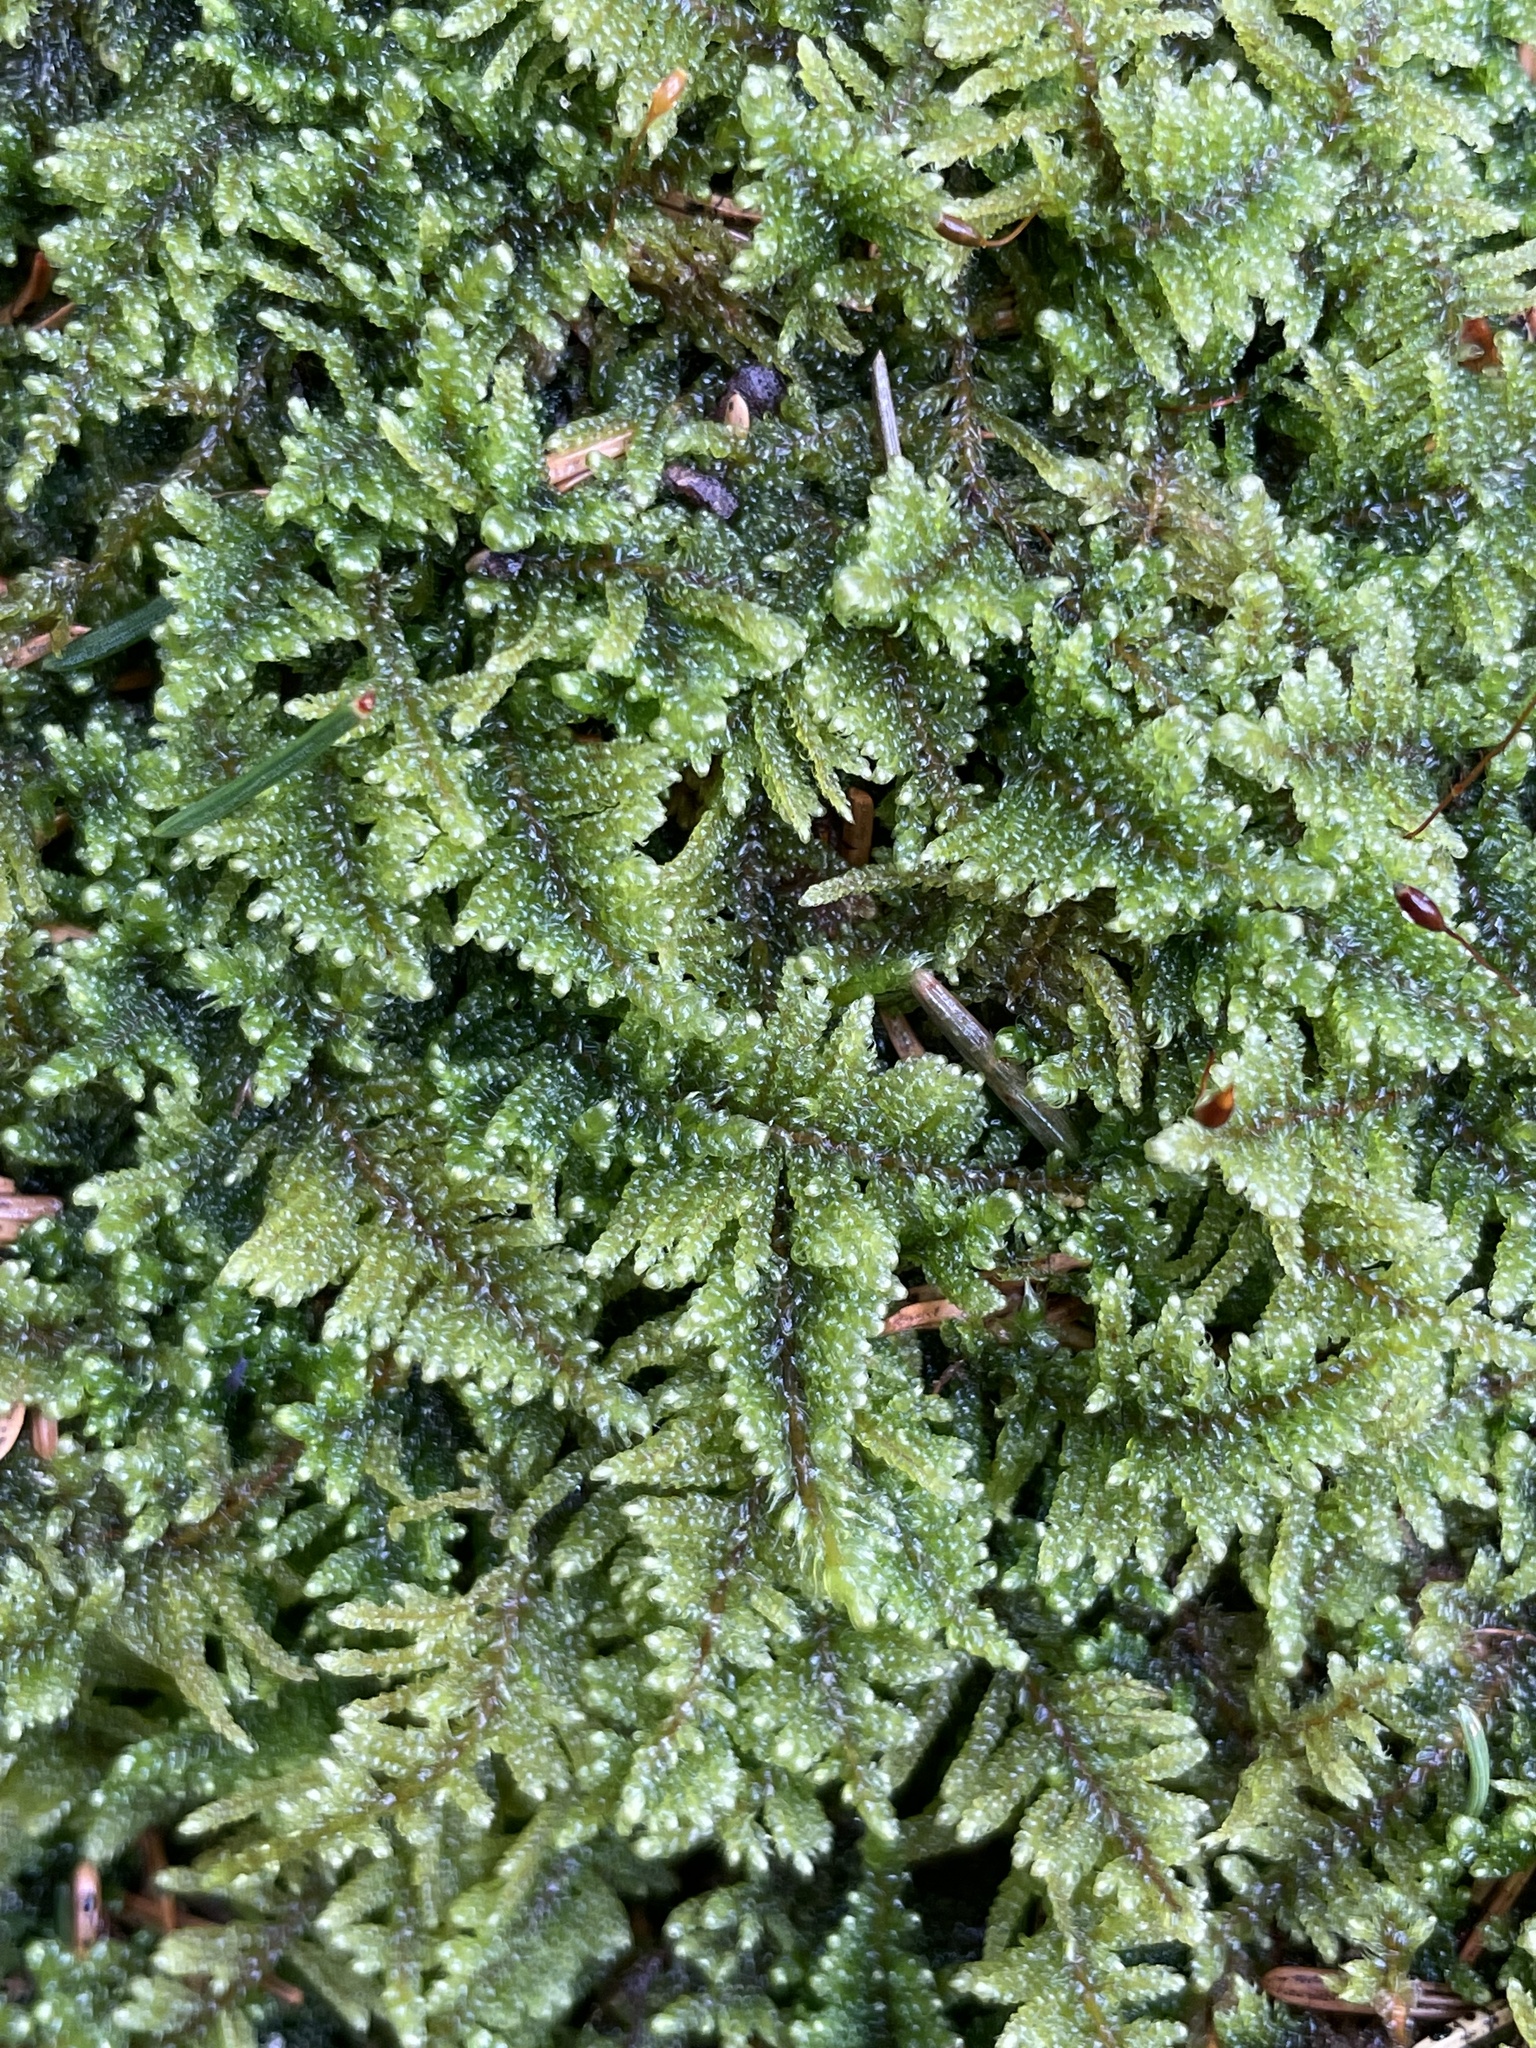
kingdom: Plantae
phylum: Bryophyta
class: Bryopsida
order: Hypnales
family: Callicladiaceae
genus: Callicladium
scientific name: Callicladium imponens
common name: Brocade moss
